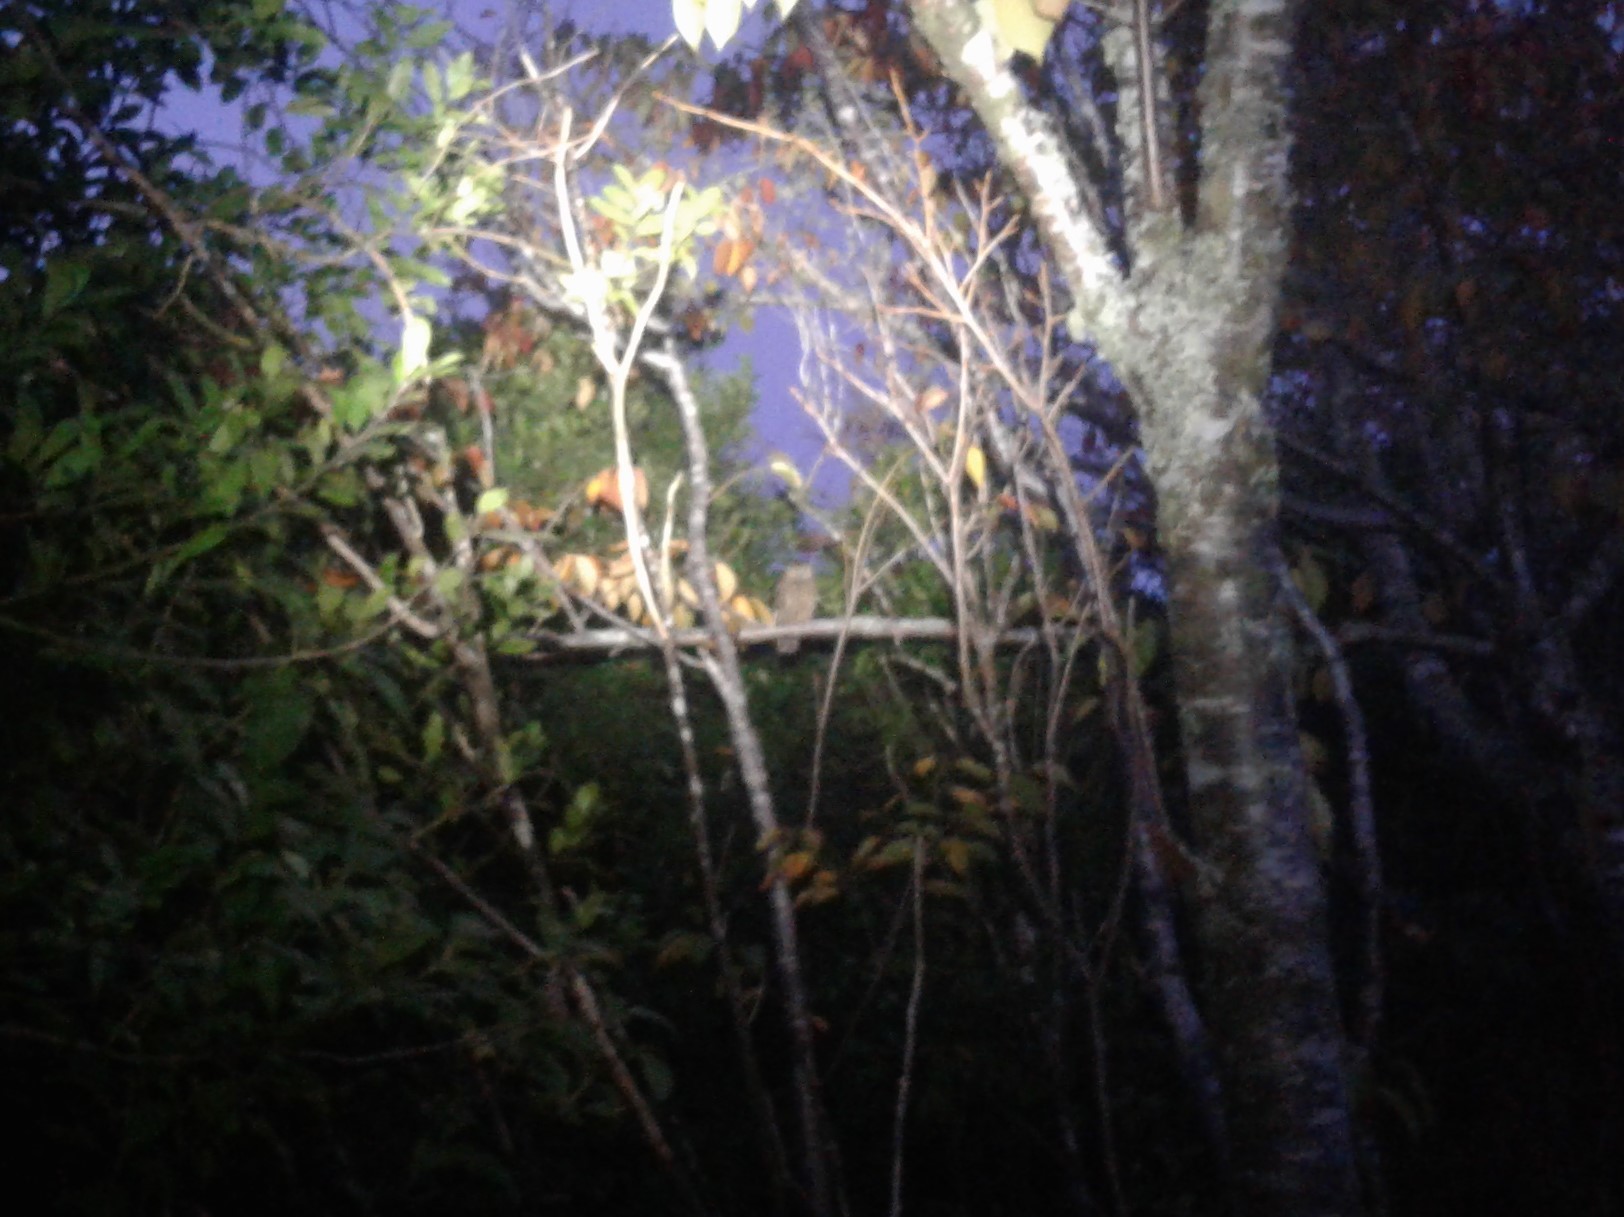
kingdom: Animalia
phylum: Chordata
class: Aves
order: Strigiformes
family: Strigidae
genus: Ninox
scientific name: Ninox novaeseelandiae
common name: Morepork
